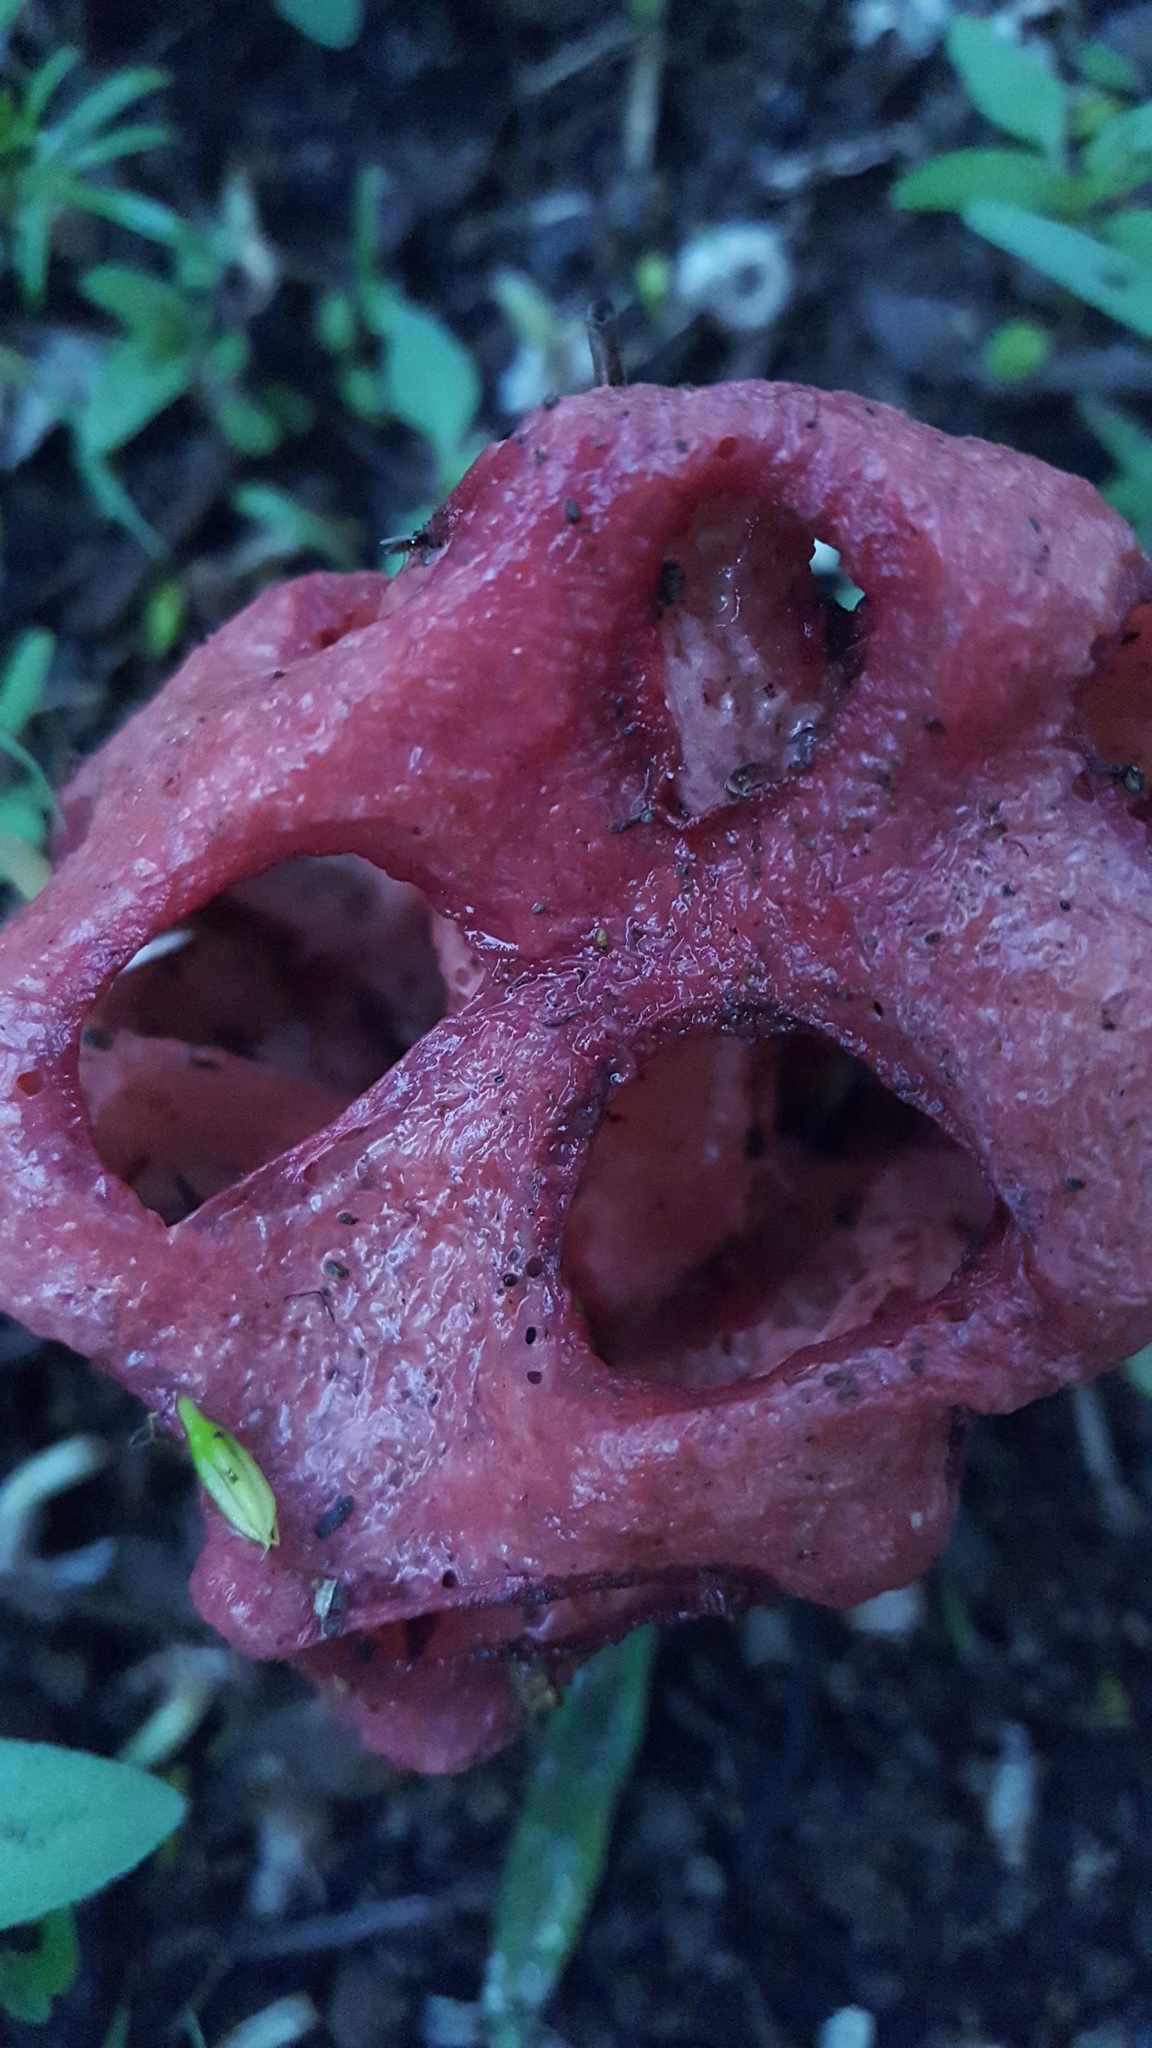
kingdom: Fungi
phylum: Basidiomycota
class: Agaricomycetes
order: Phallales
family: Phallaceae
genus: Clathrus
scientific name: Clathrus crispatus
